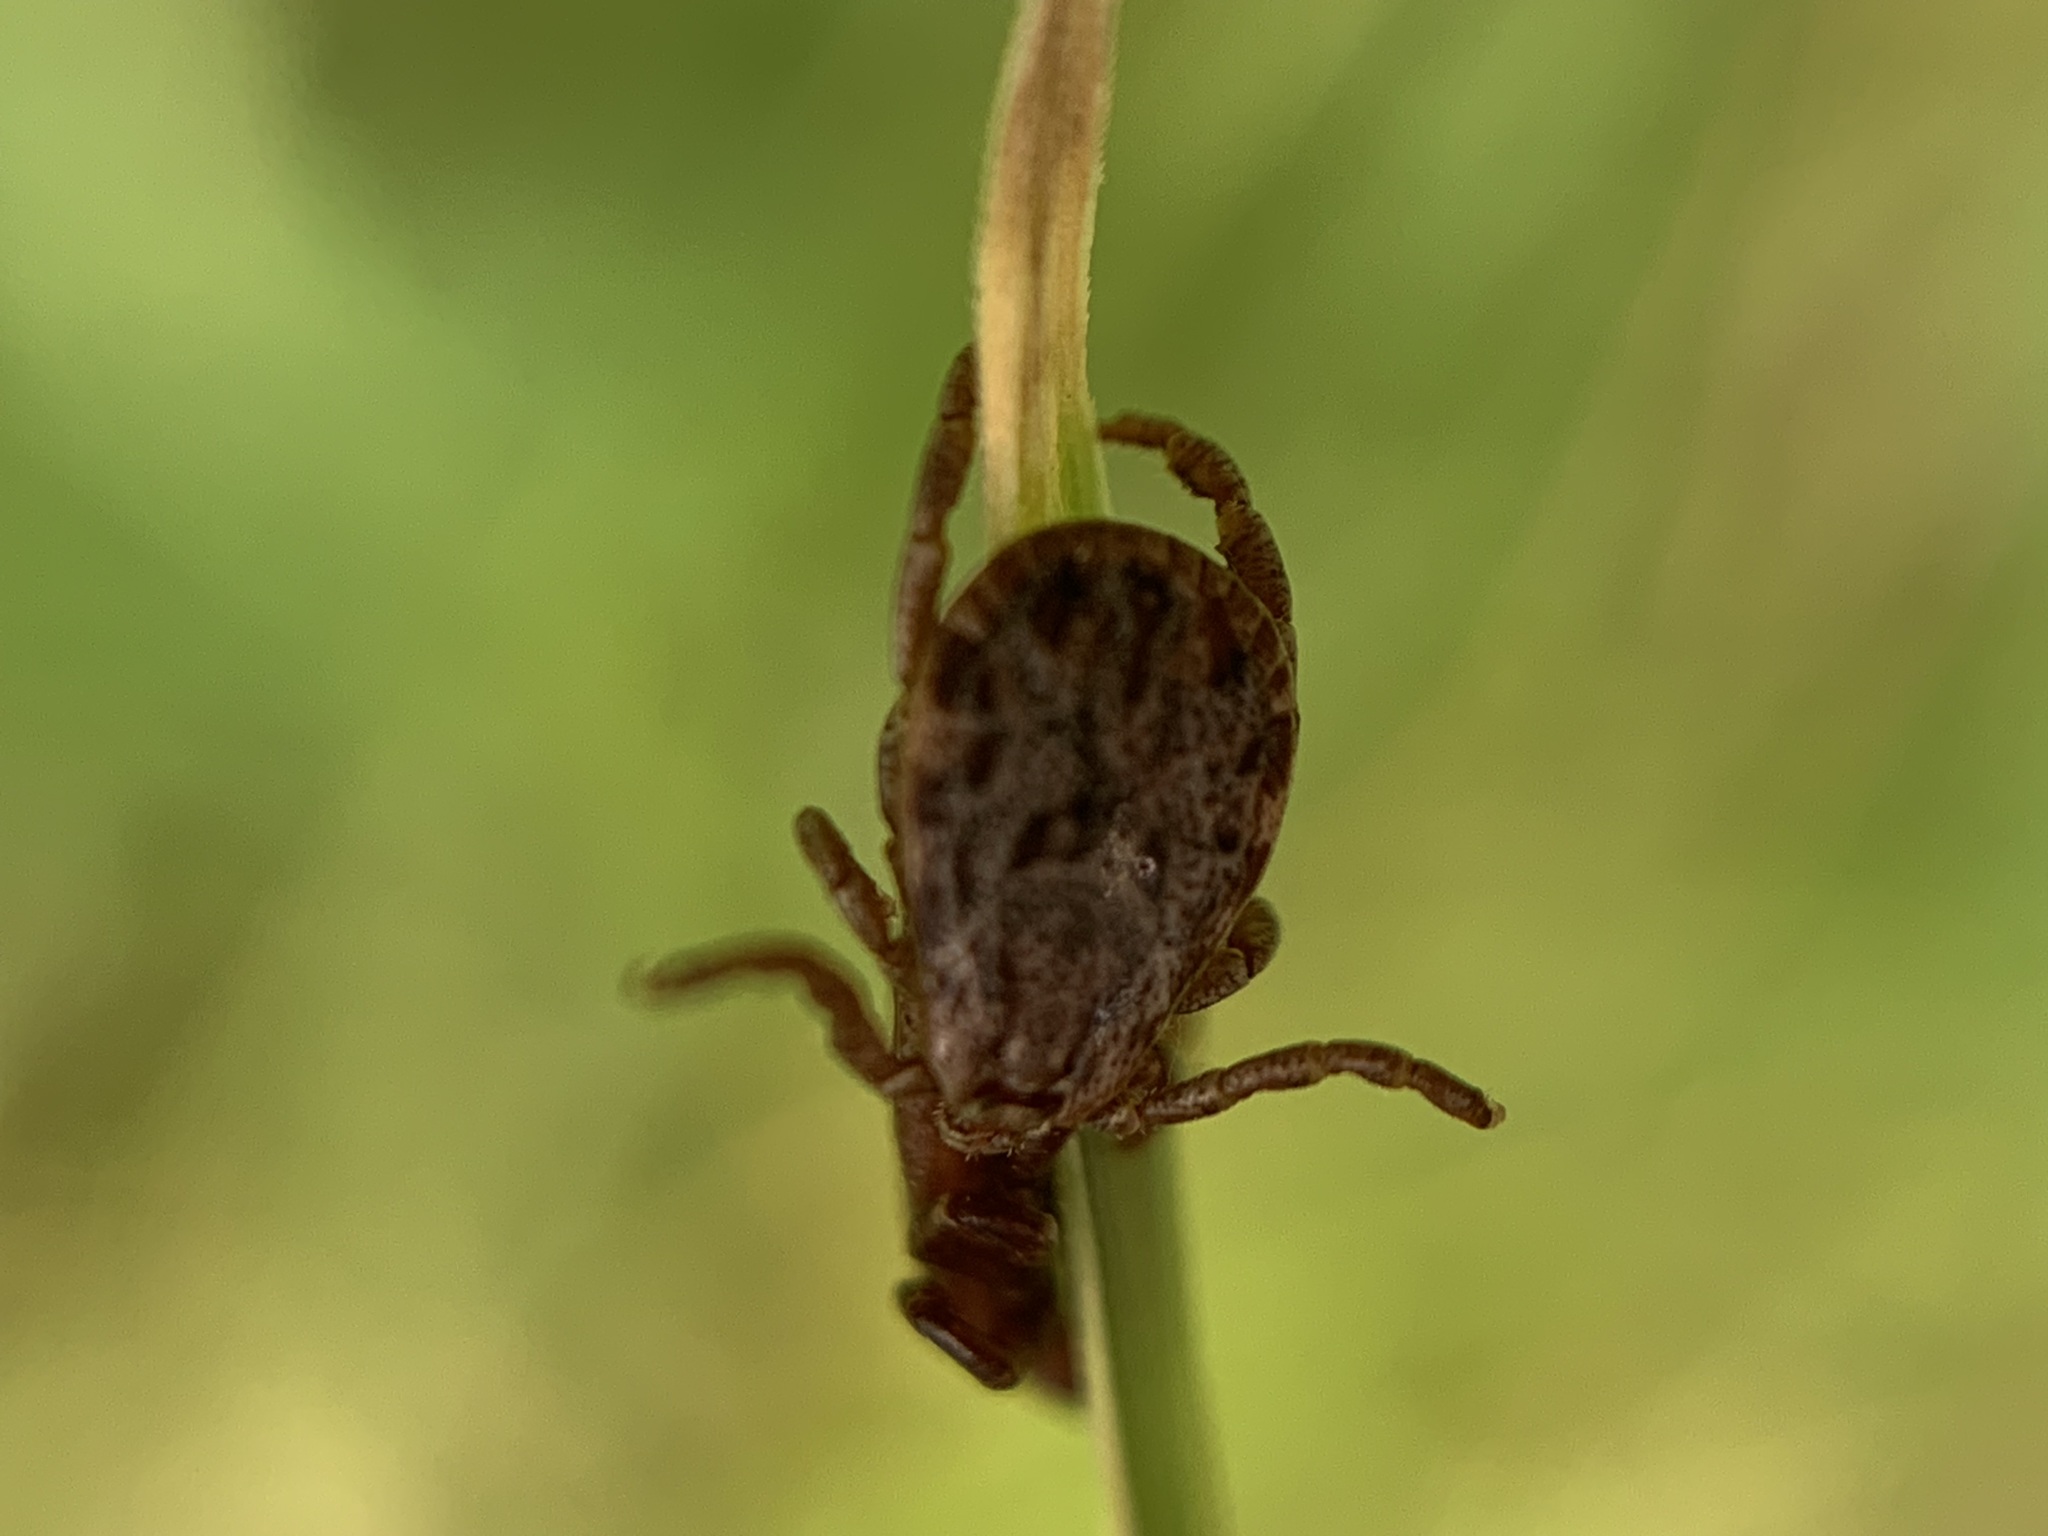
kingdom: Animalia
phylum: Arthropoda
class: Arachnida
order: Ixodida
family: Ixodidae
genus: Dermacentor
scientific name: Dermacentor occidentalis
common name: Net tick
